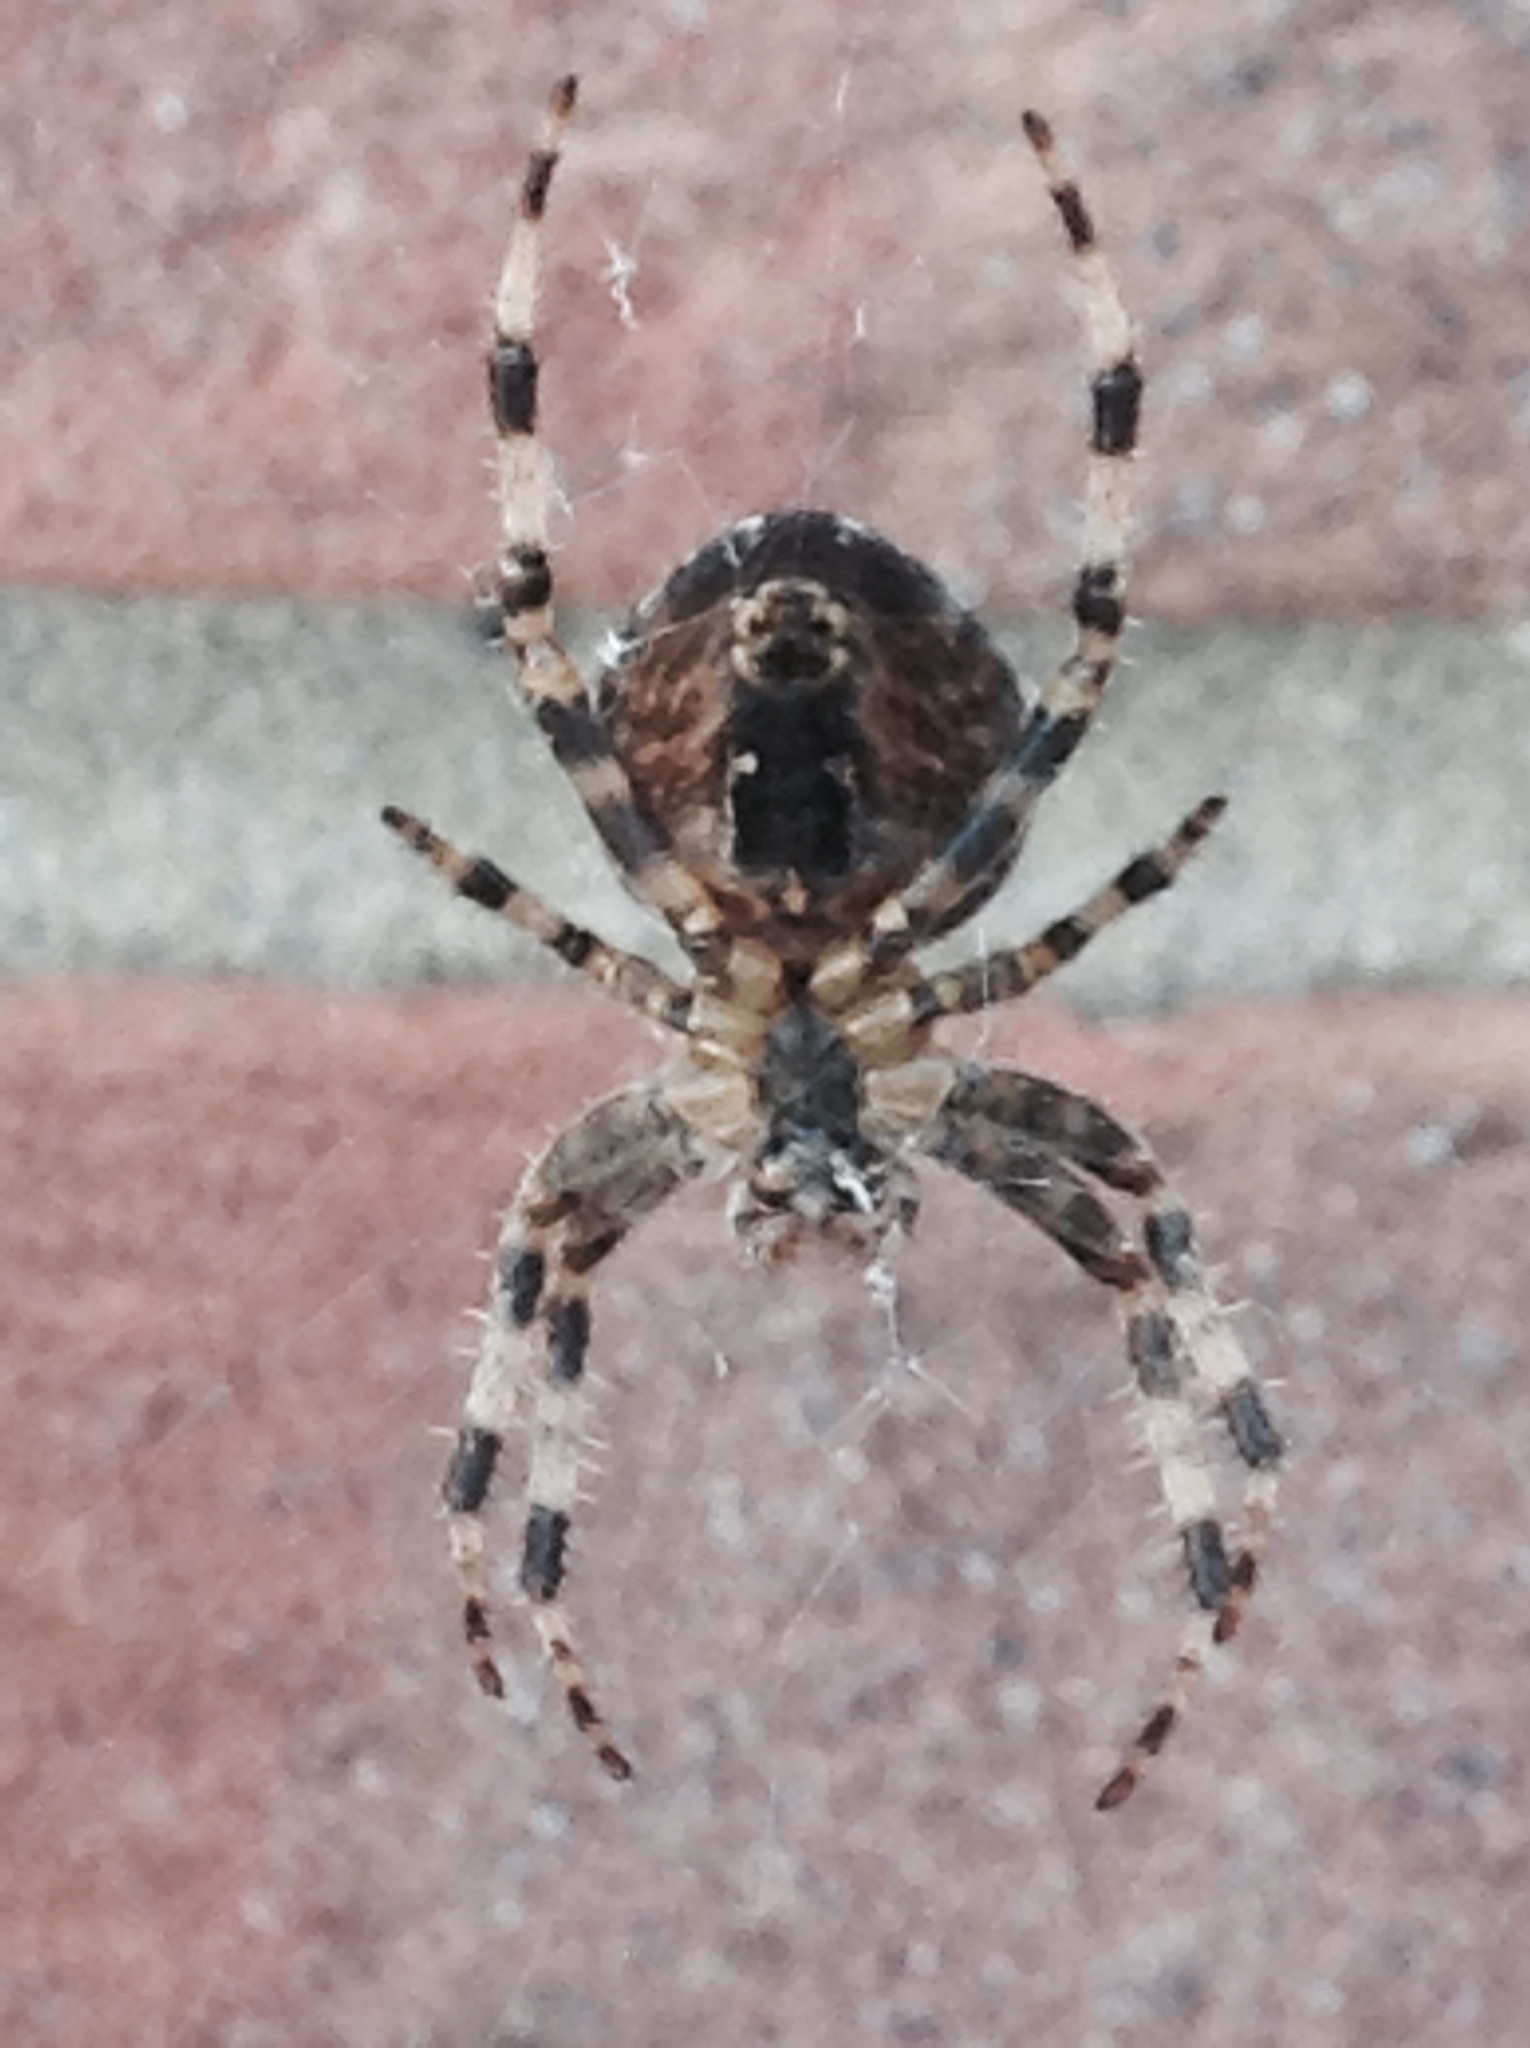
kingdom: Animalia
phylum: Arthropoda
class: Arachnida
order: Araneae
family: Araneidae
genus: Araneus
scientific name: Araneus diadematus
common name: Cross orbweaver
